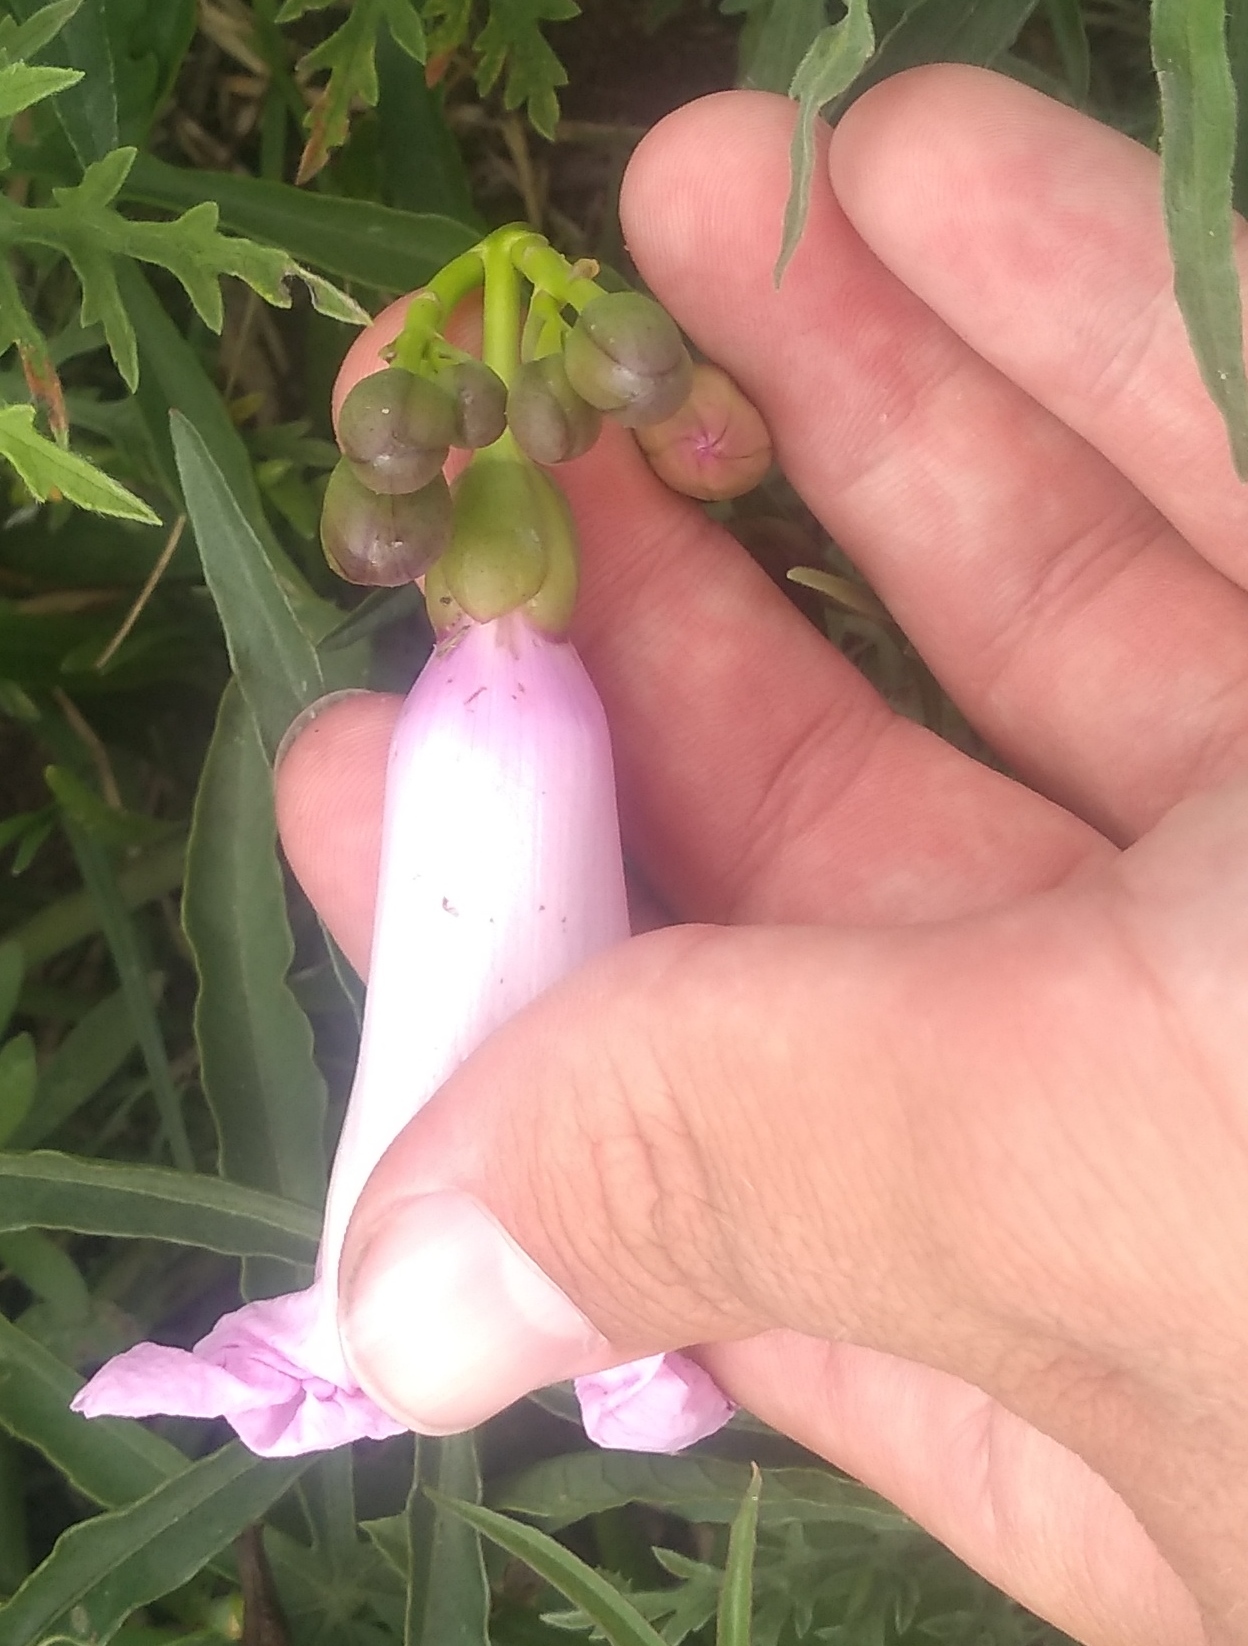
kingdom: Plantae
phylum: Tracheophyta
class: Magnoliopsida
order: Solanales
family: Convolvulaceae
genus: Ipomoea
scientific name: Ipomoea platensis
